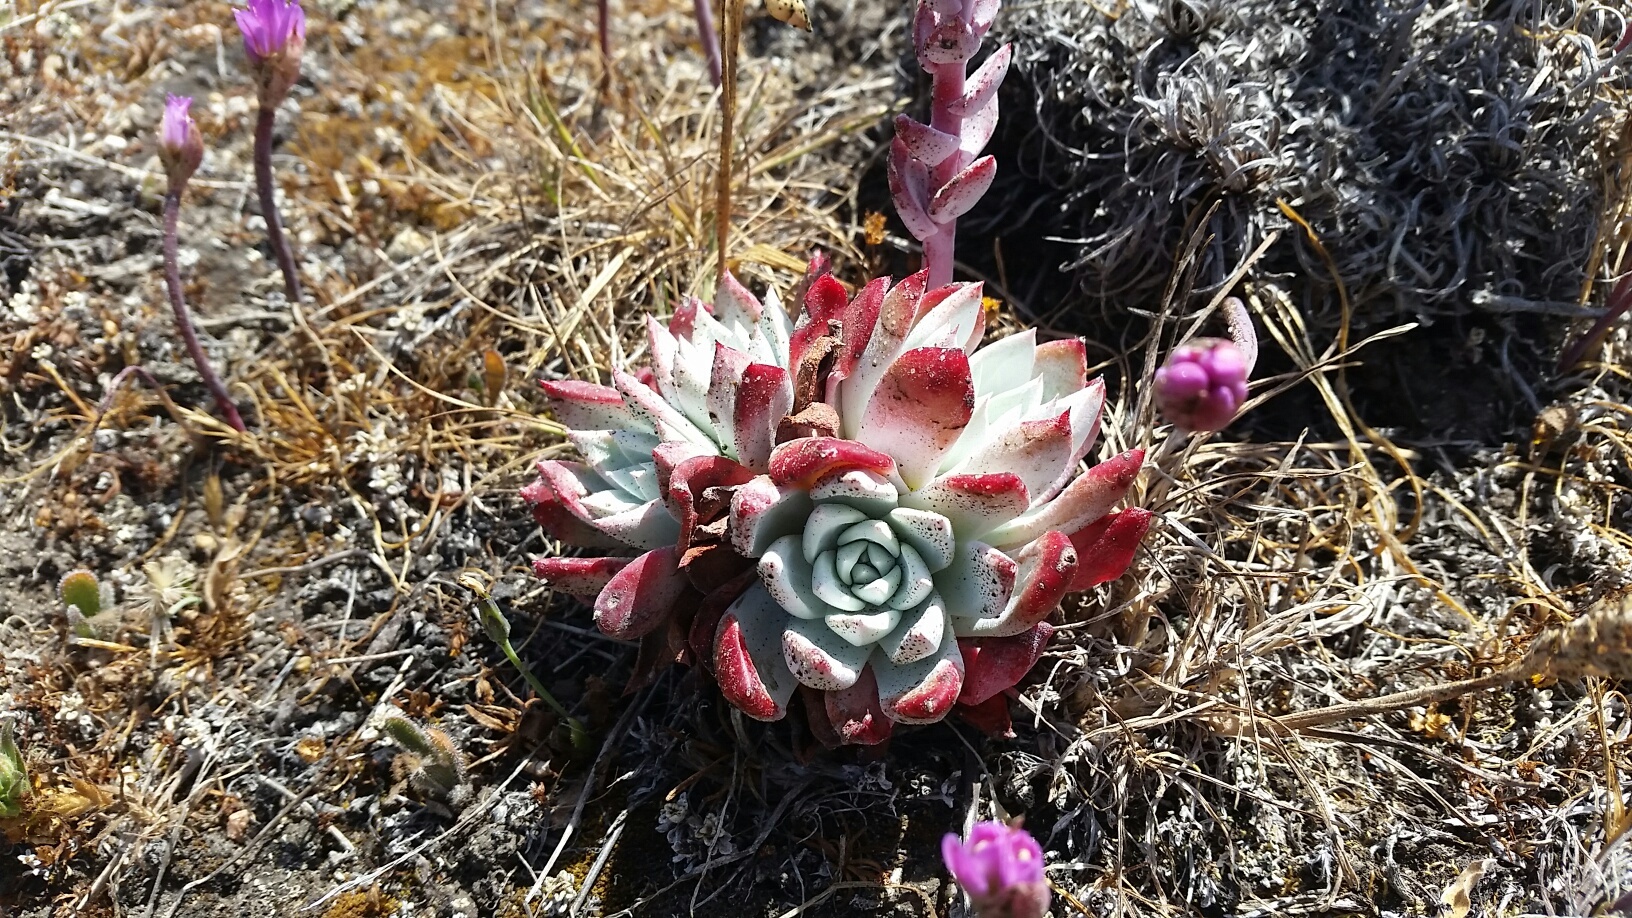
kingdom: Plantae
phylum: Tracheophyta
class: Magnoliopsida
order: Saxifragales
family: Crassulaceae
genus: Dudleya
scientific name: Dudleya farinosa
